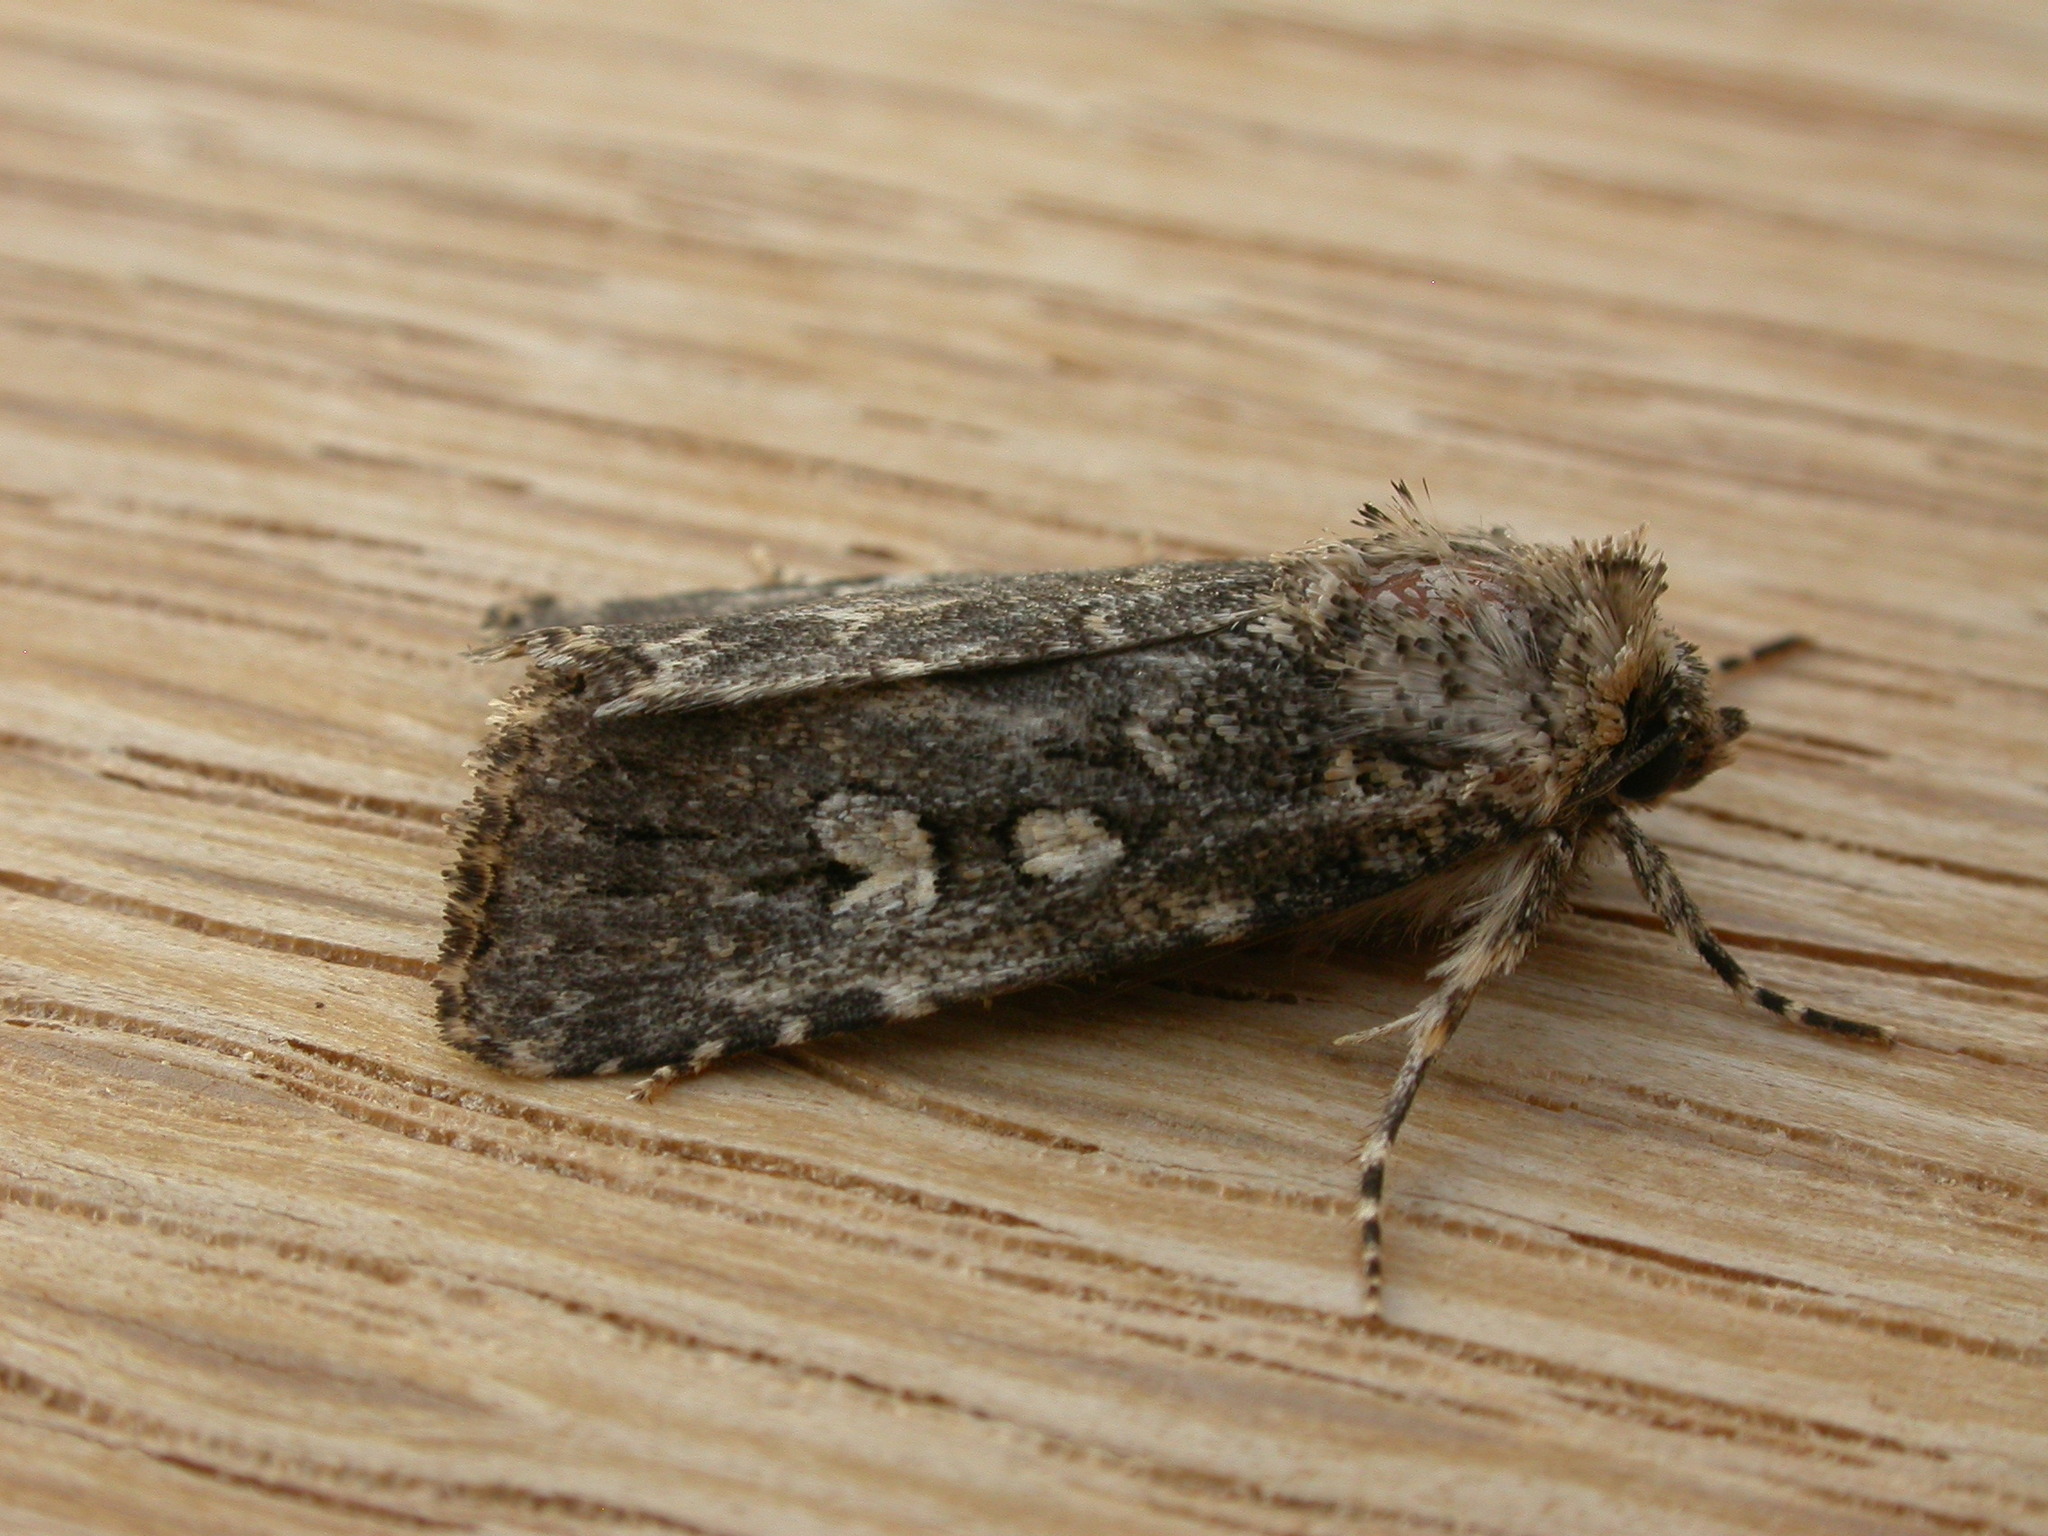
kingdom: Animalia
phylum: Arthropoda
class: Insecta
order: Lepidoptera
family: Noctuidae
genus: Ectopatria
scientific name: Ectopatria horologa
